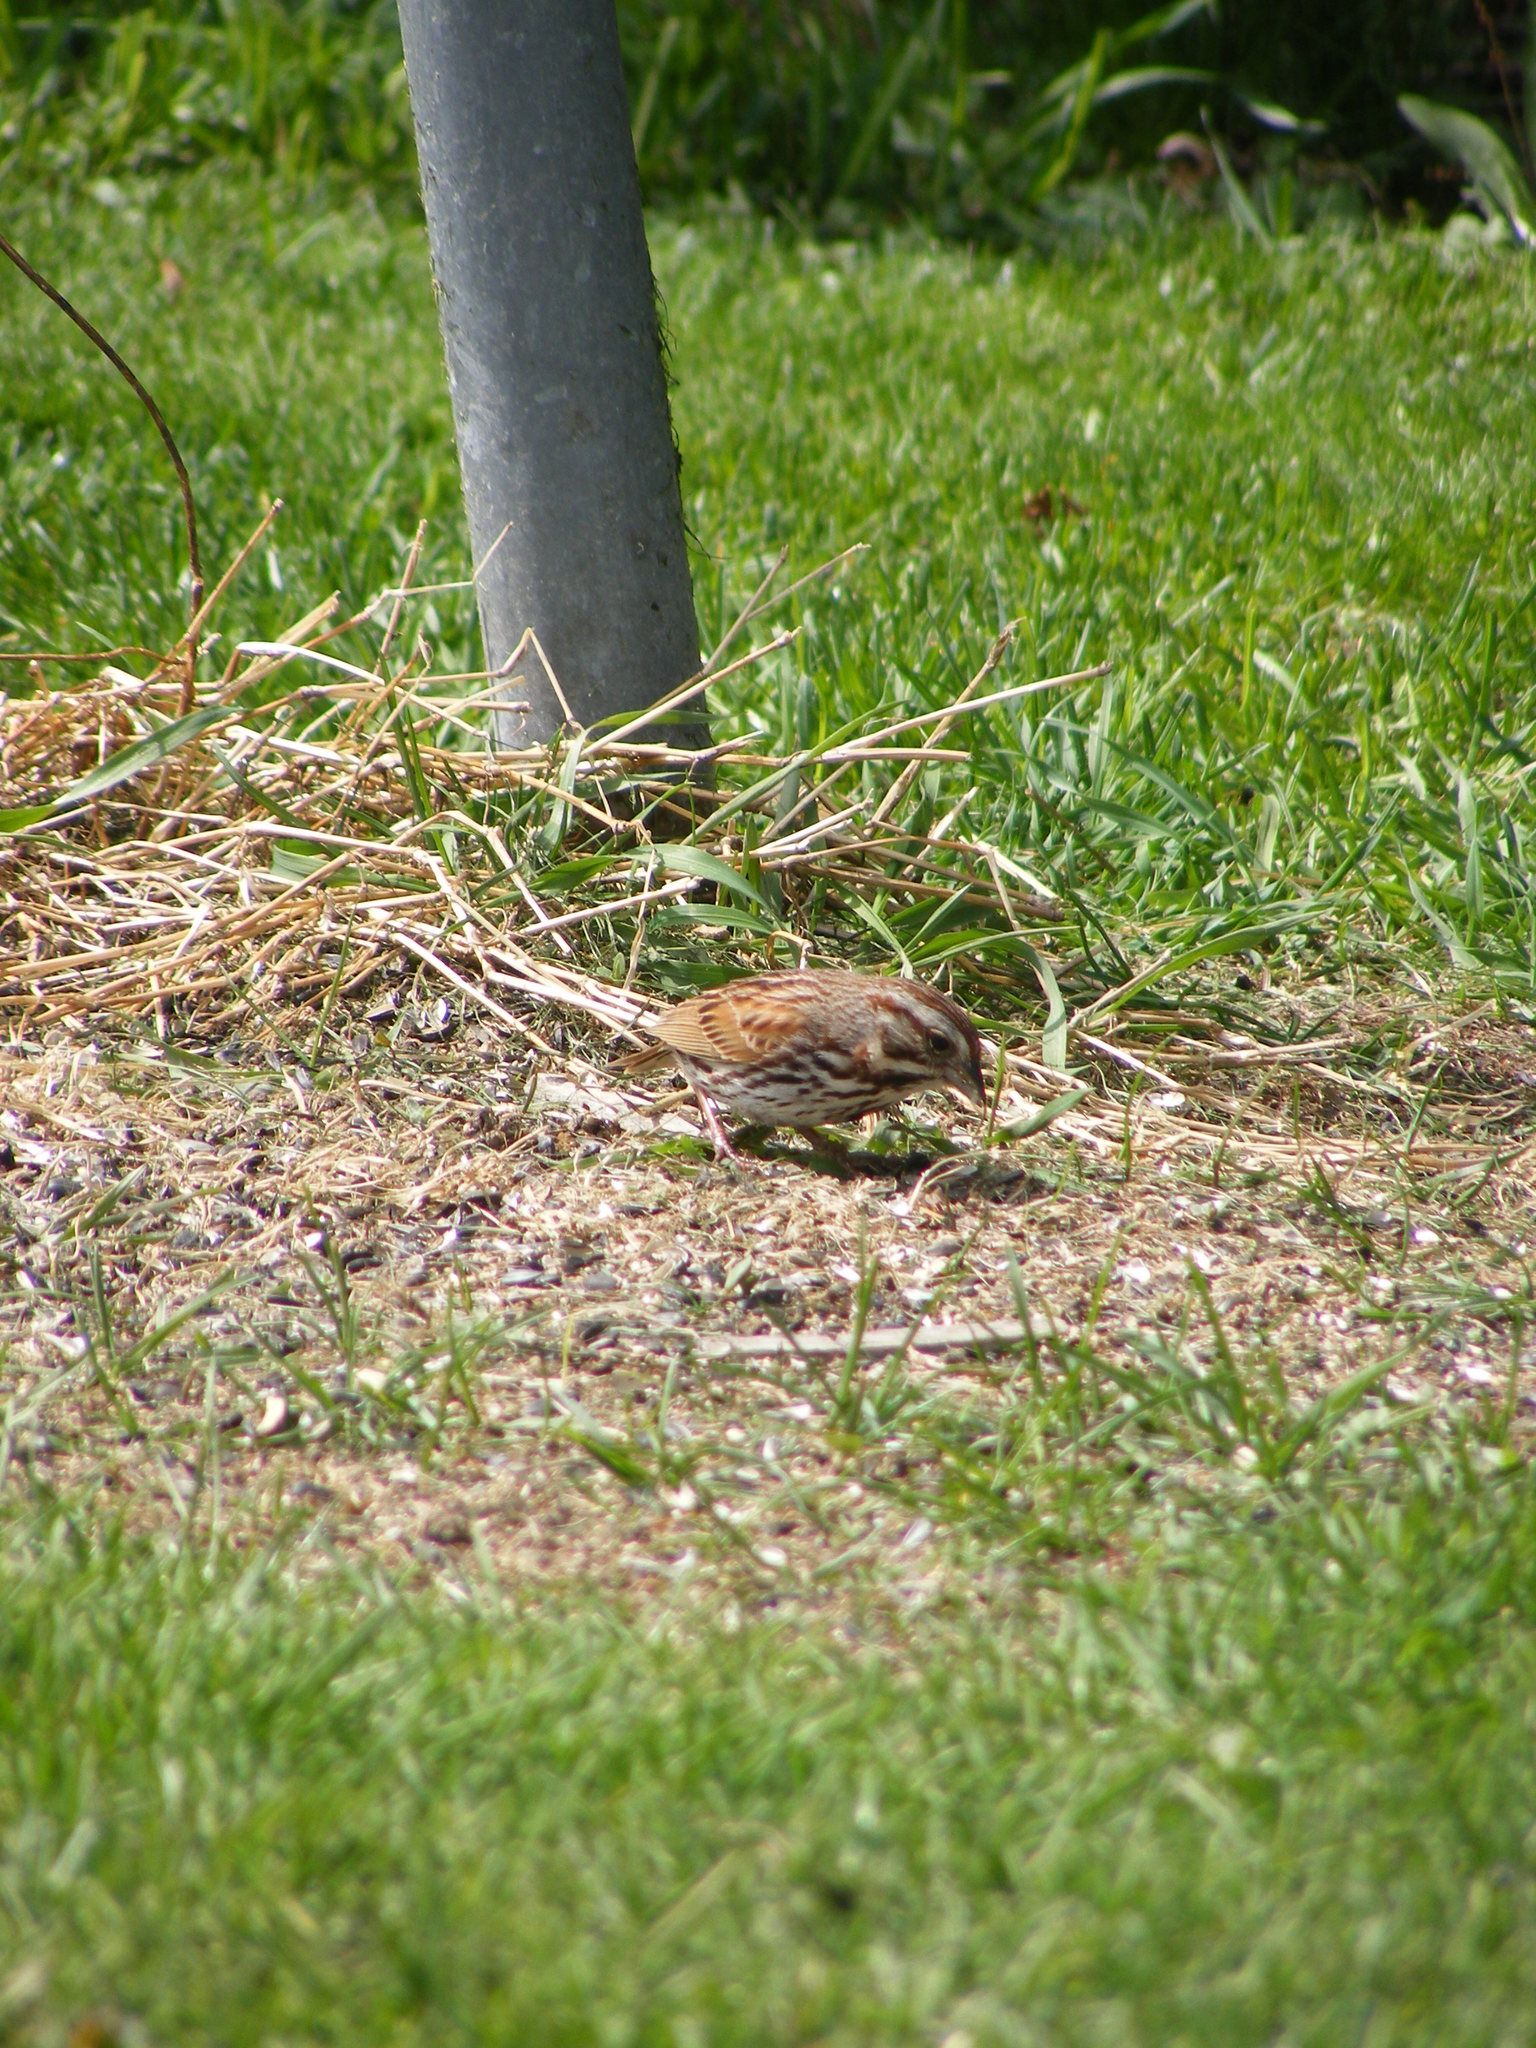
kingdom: Animalia
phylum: Chordata
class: Aves
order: Passeriformes
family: Passerellidae
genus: Melospiza
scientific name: Melospiza melodia
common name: Song sparrow
